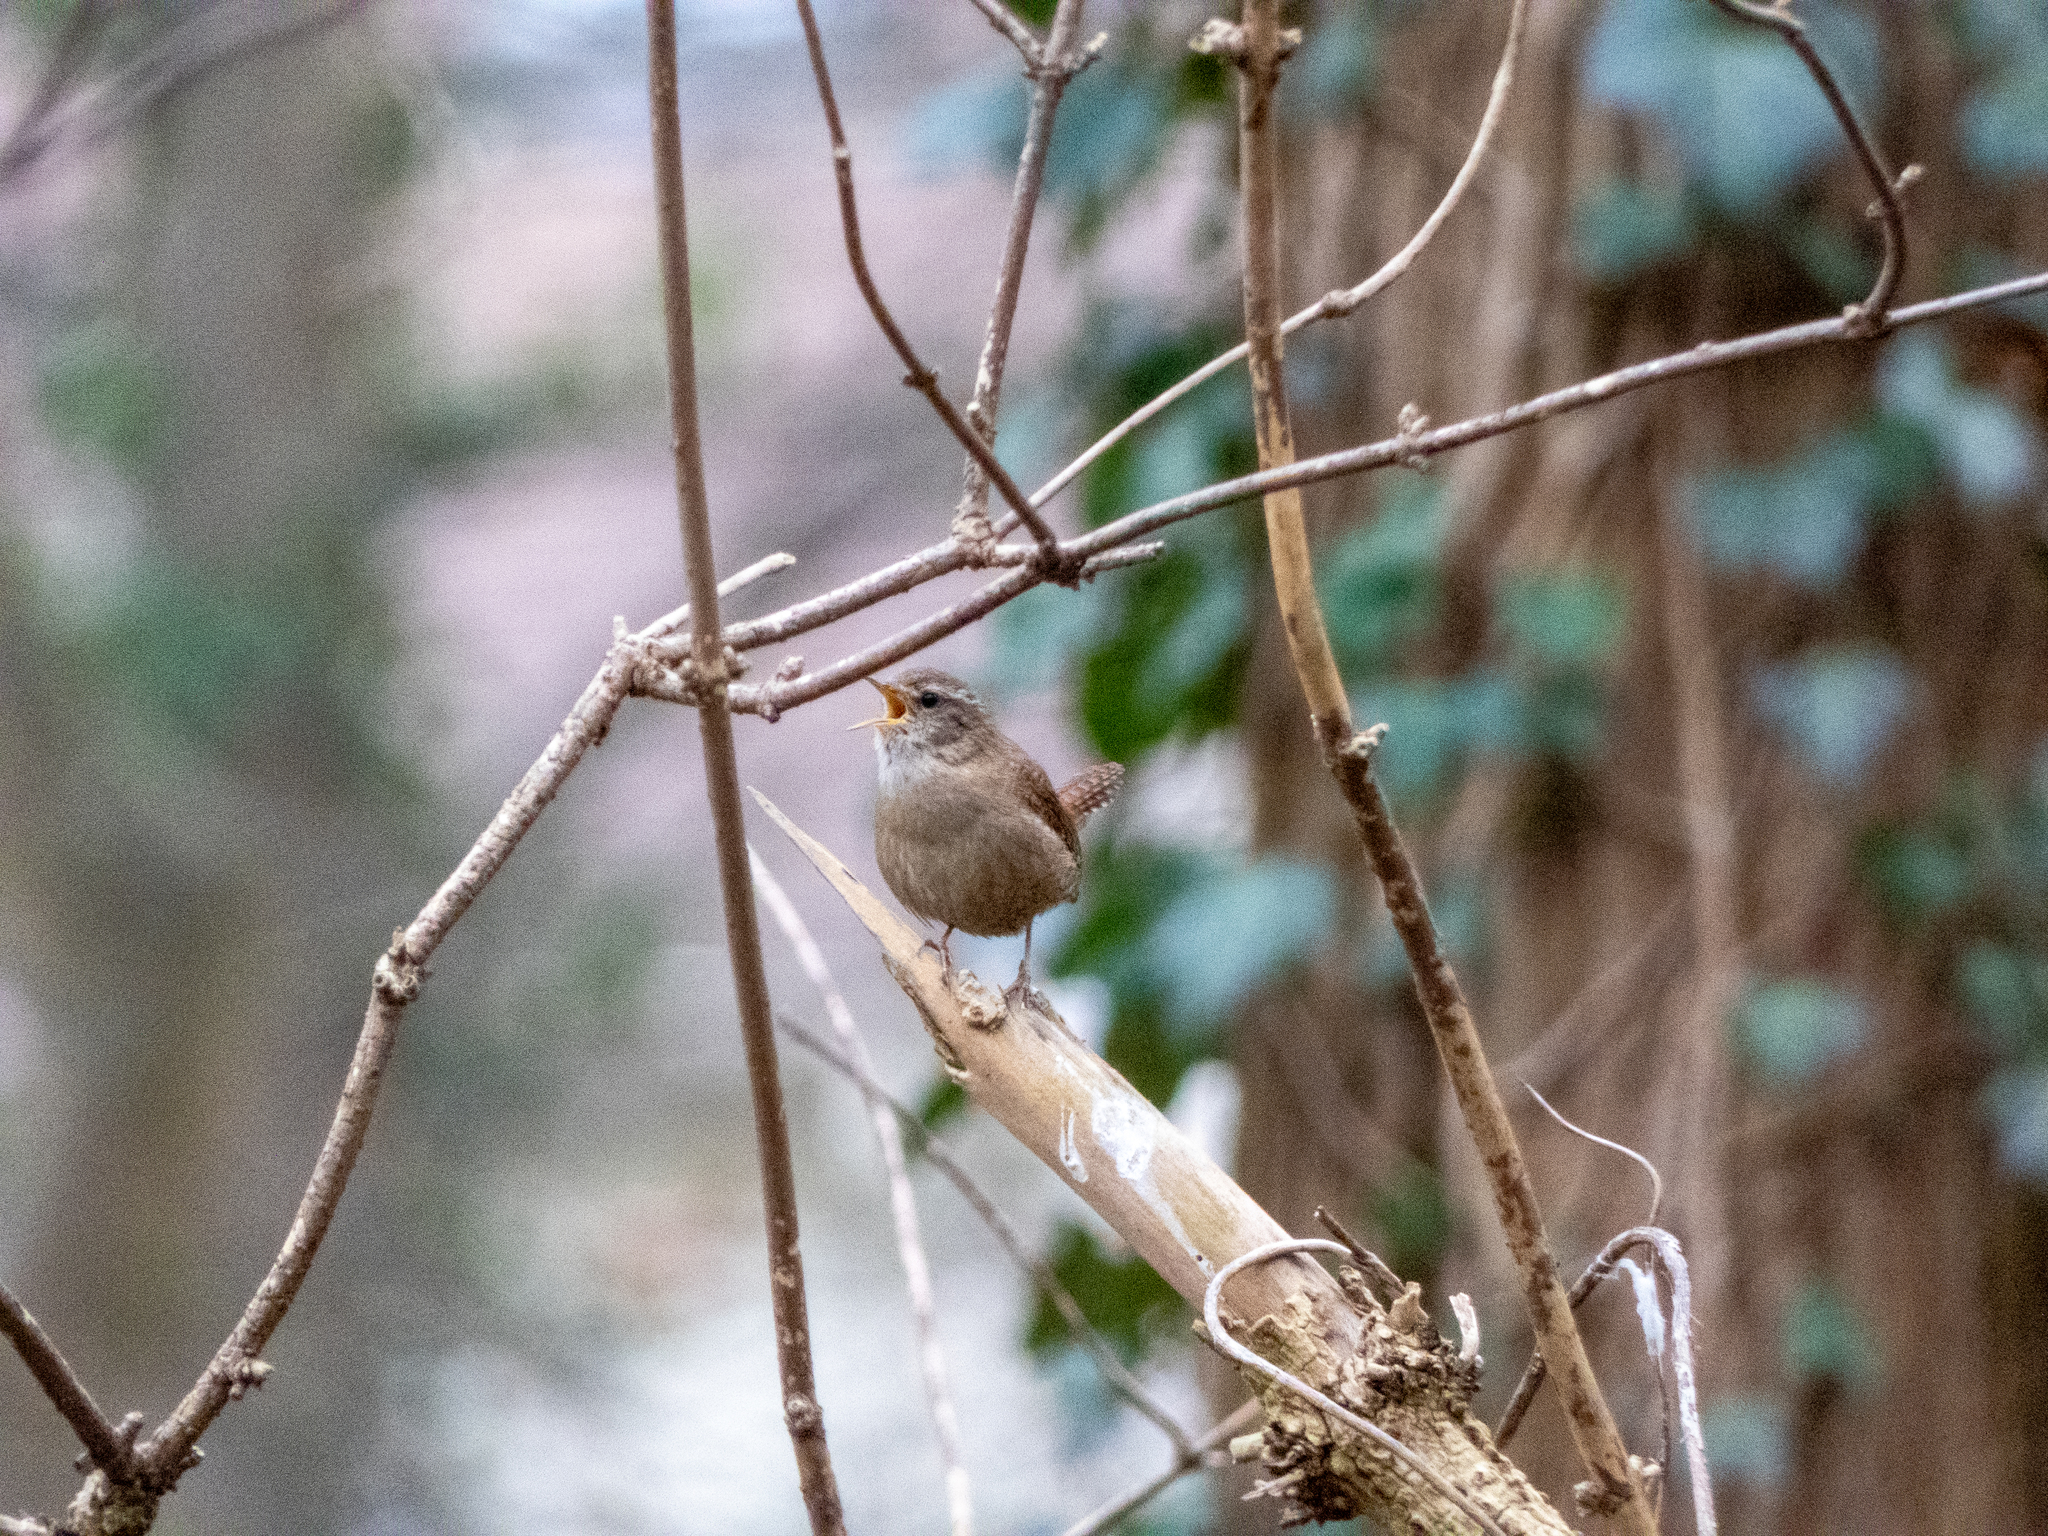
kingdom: Animalia
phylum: Chordata
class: Aves
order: Passeriformes
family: Troglodytidae
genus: Troglodytes
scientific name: Troglodytes troglodytes
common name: Eurasian wren
